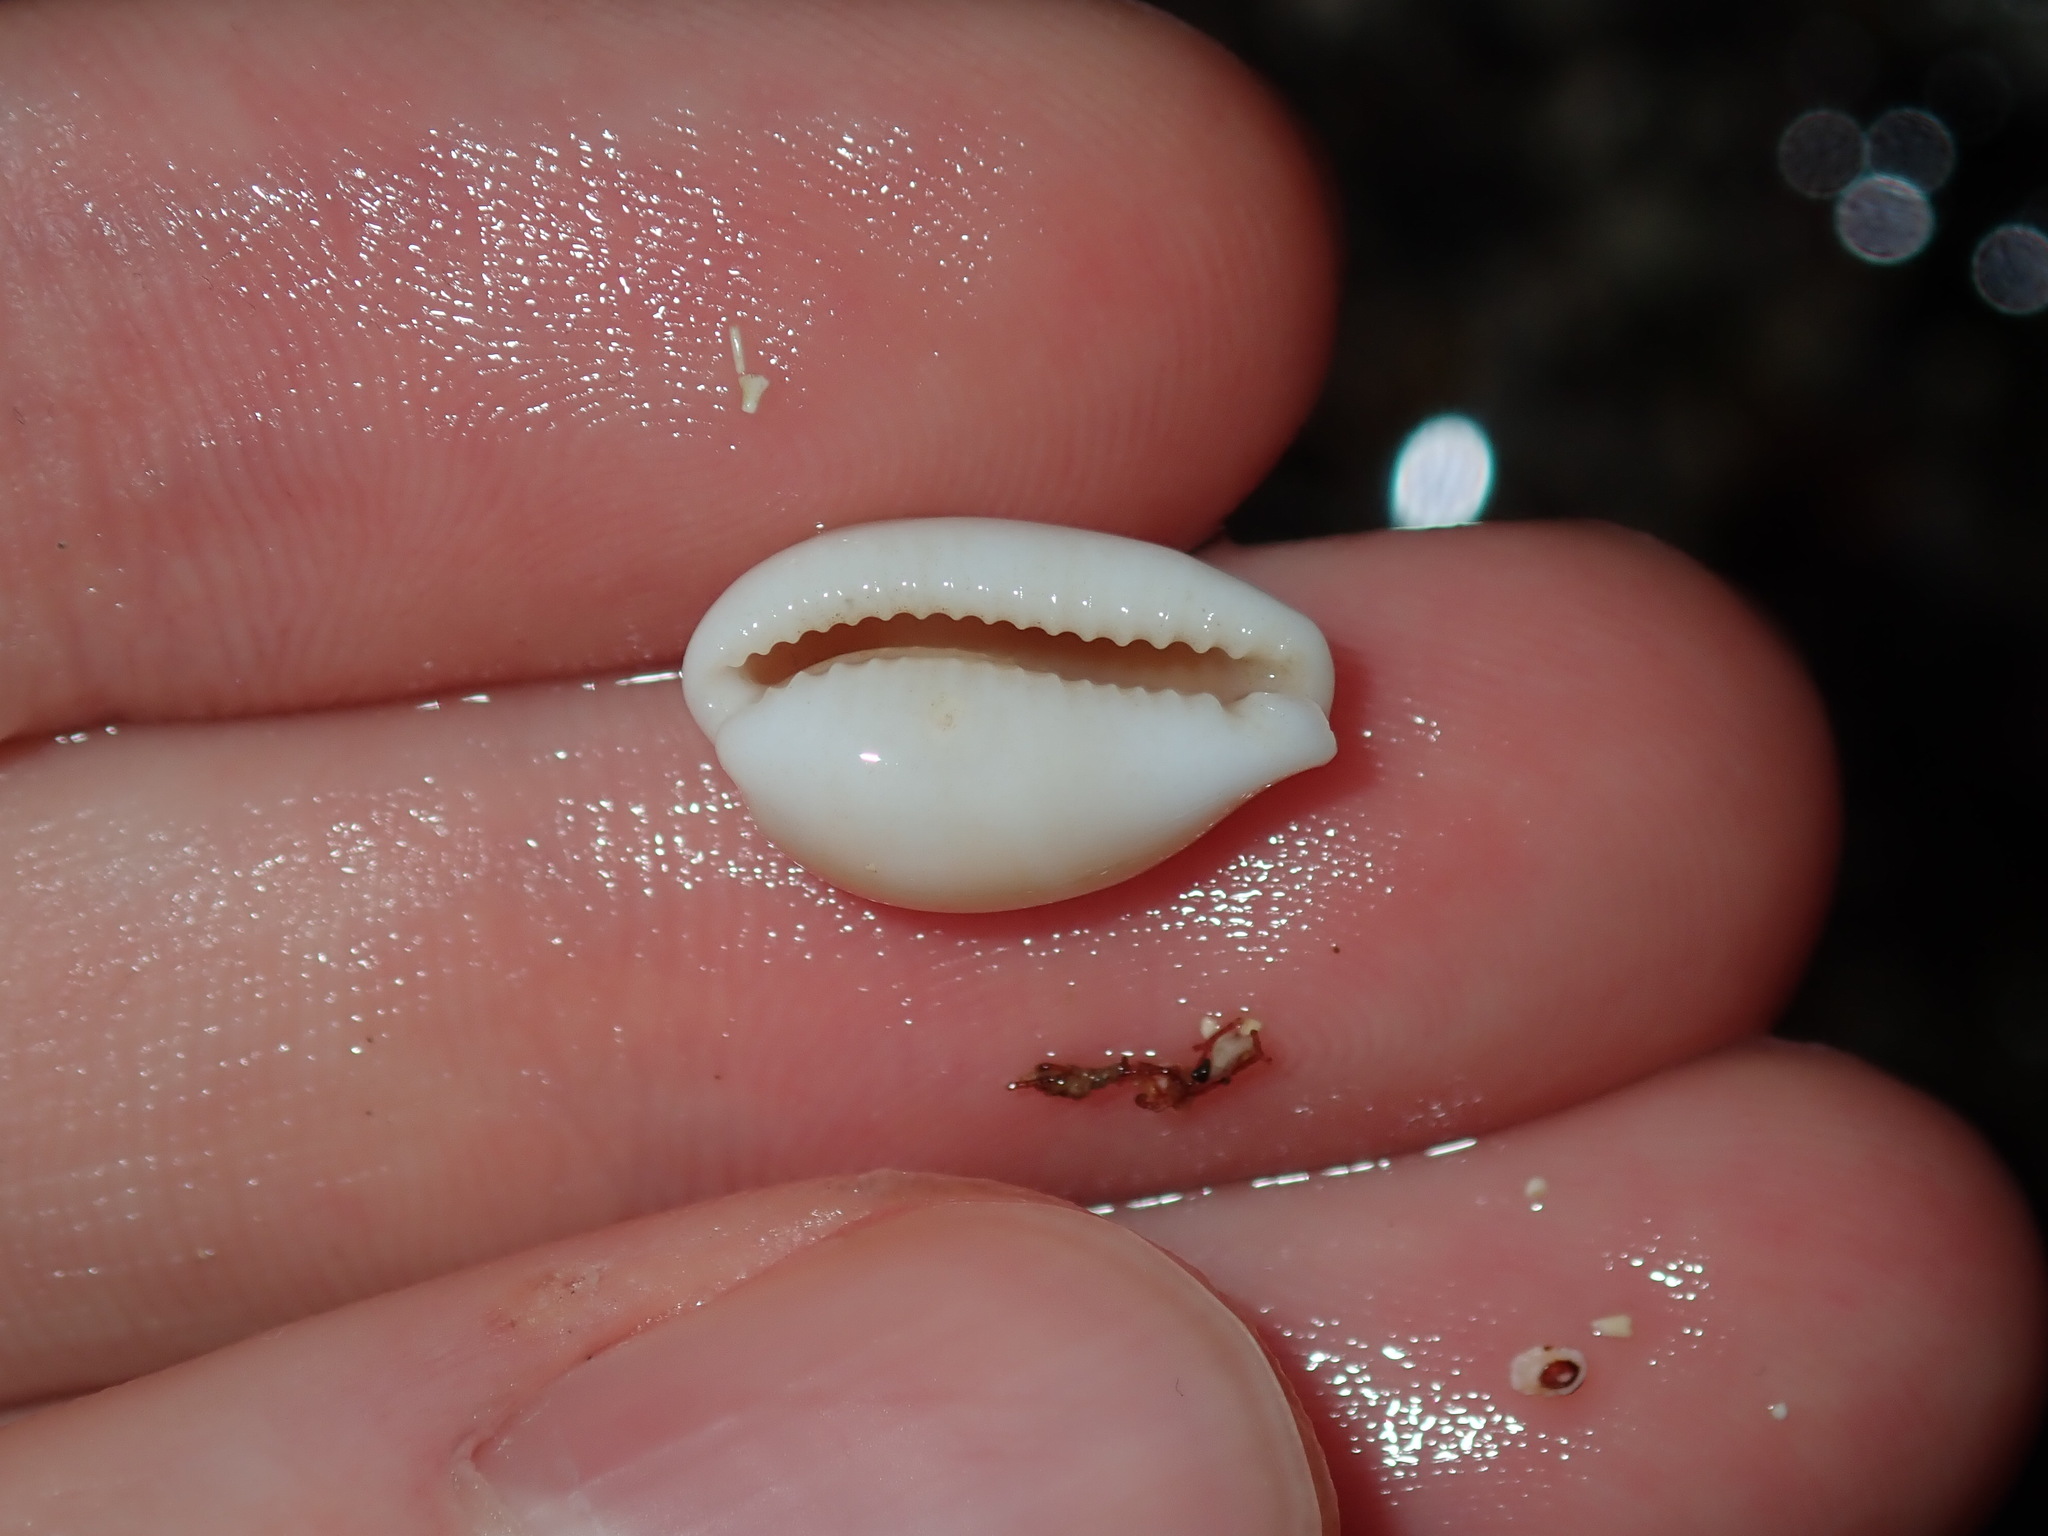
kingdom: Animalia
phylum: Mollusca
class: Gastropoda
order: Littorinimorpha
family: Cypraeidae
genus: Palmadusta
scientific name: Palmadusta clandestina
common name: Cowrie
